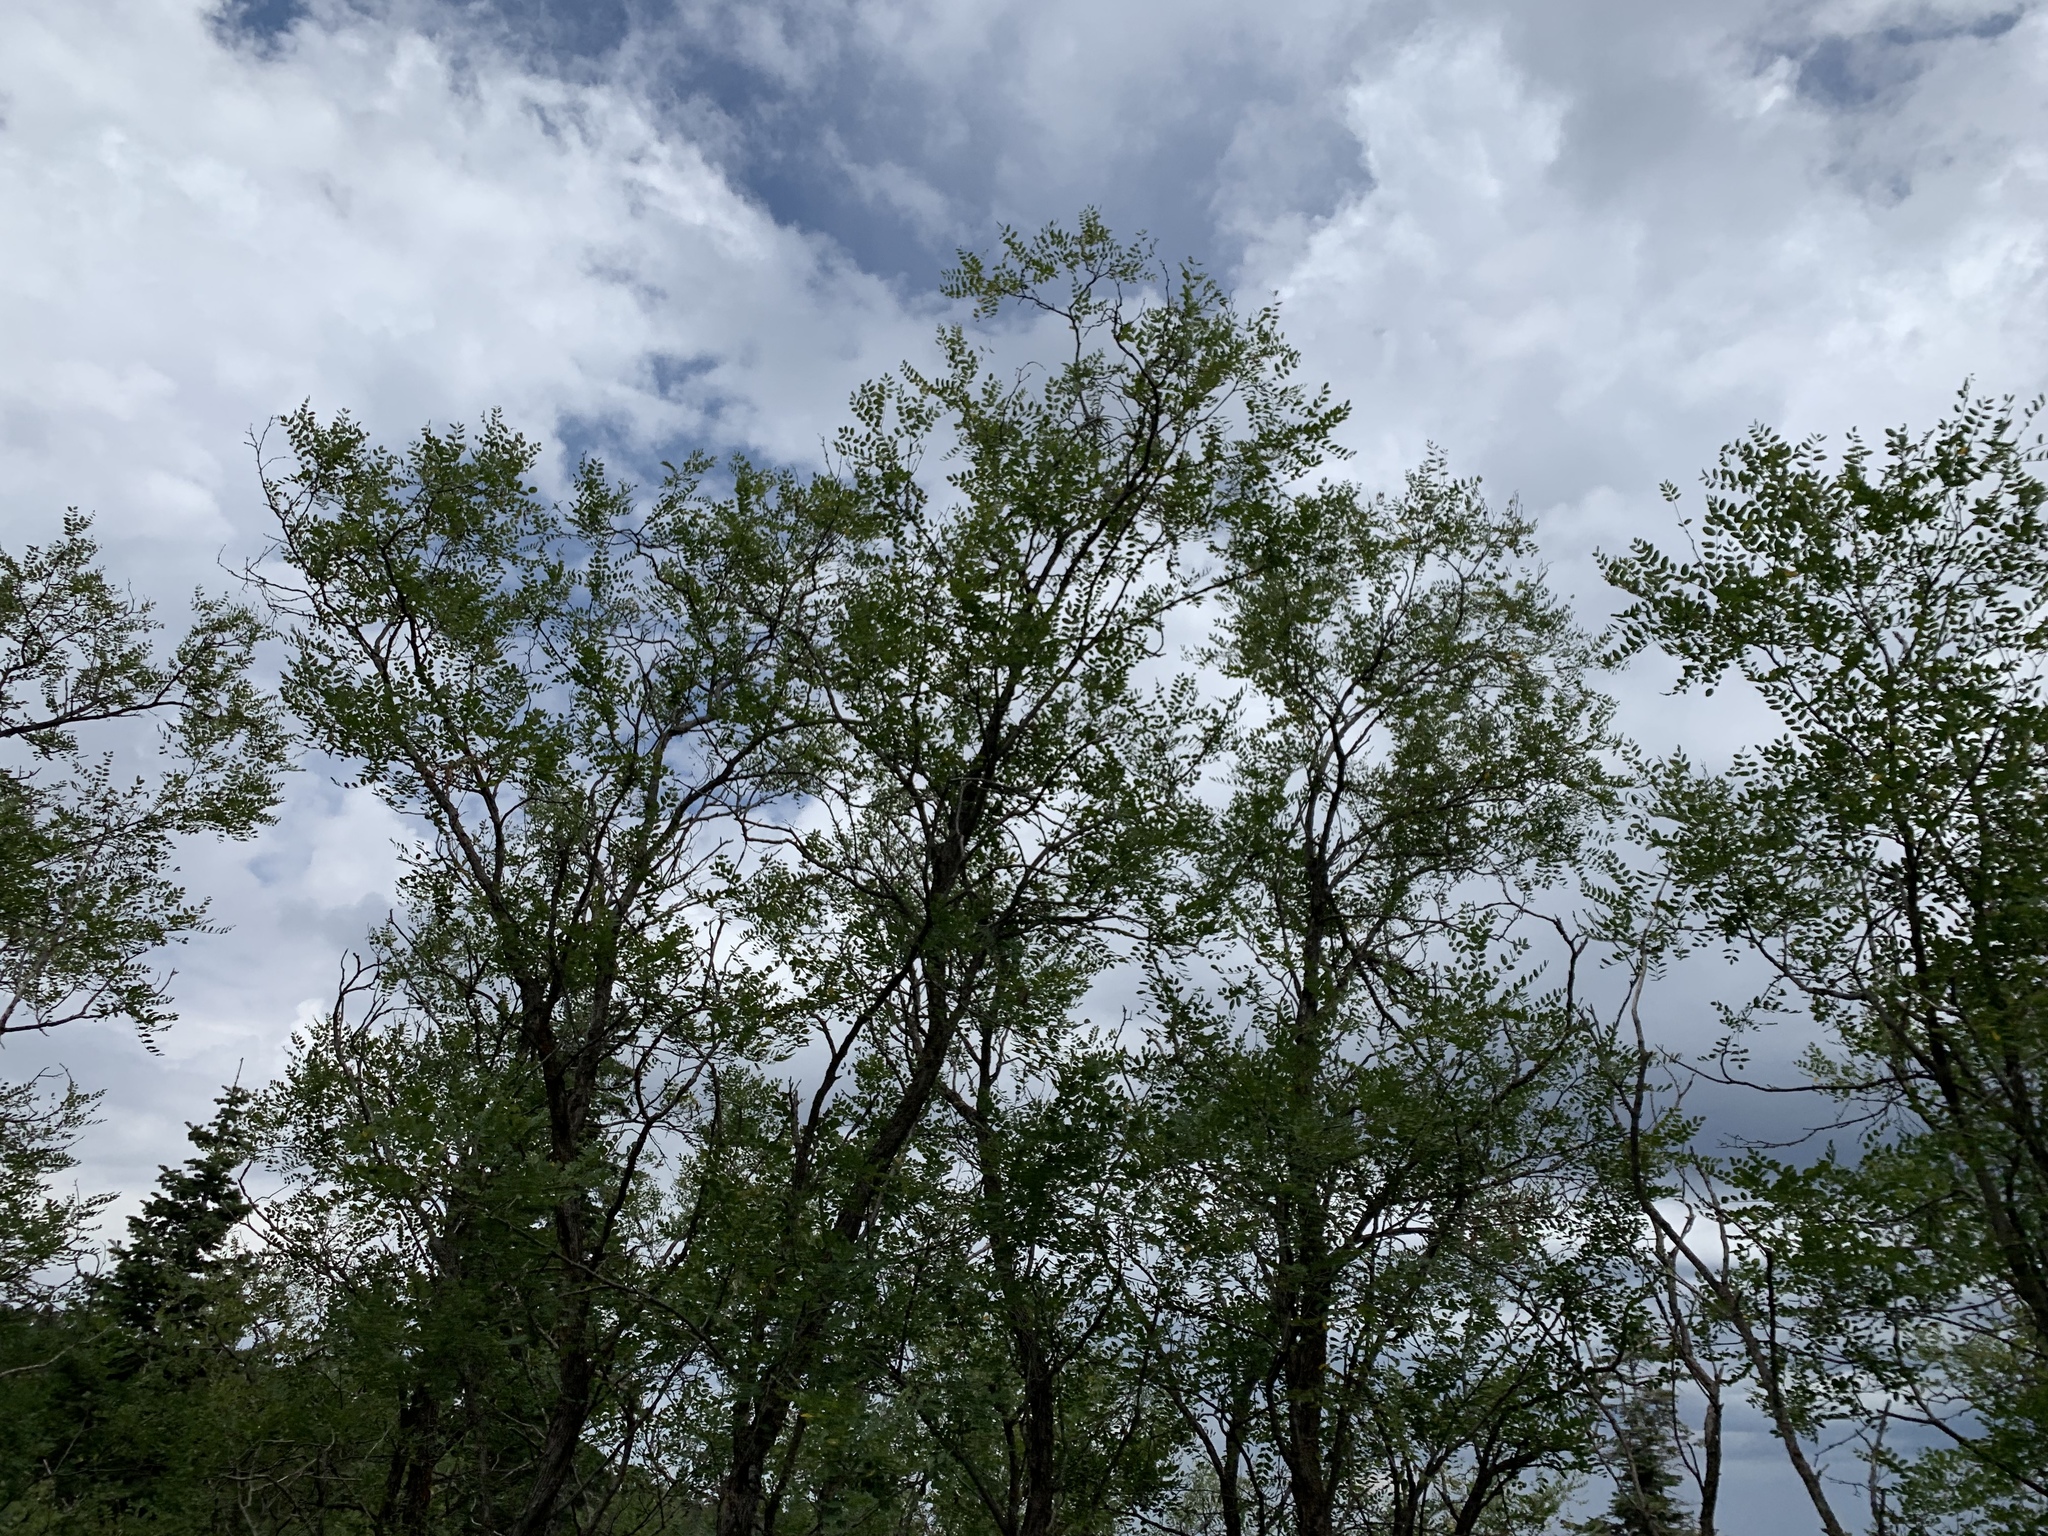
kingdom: Plantae
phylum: Tracheophyta
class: Magnoliopsida
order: Fabales
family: Fabaceae
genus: Robinia
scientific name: Robinia neomexicana
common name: New mexico locust
